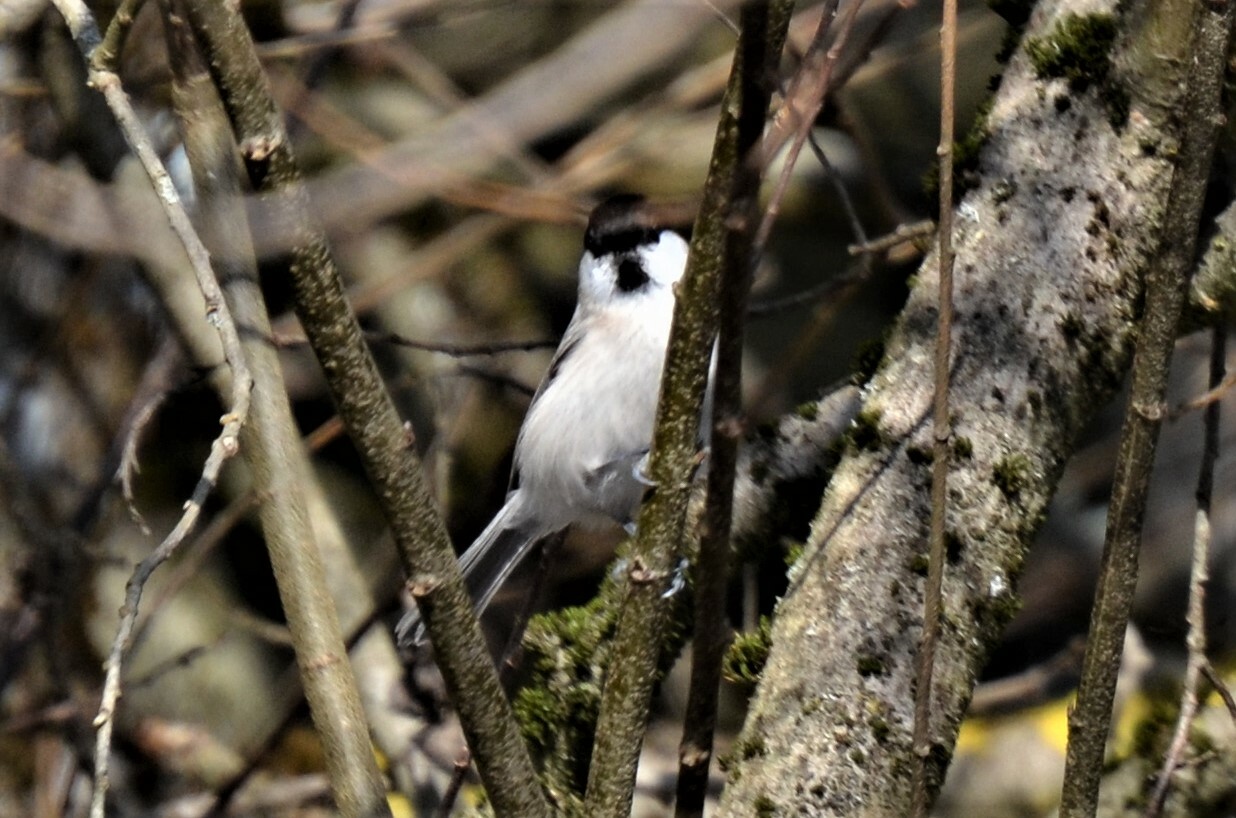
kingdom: Animalia
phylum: Chordata
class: Aves
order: Passeriformes
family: Paridae
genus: Poecile
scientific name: Poecile palustris
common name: Marsh tit
